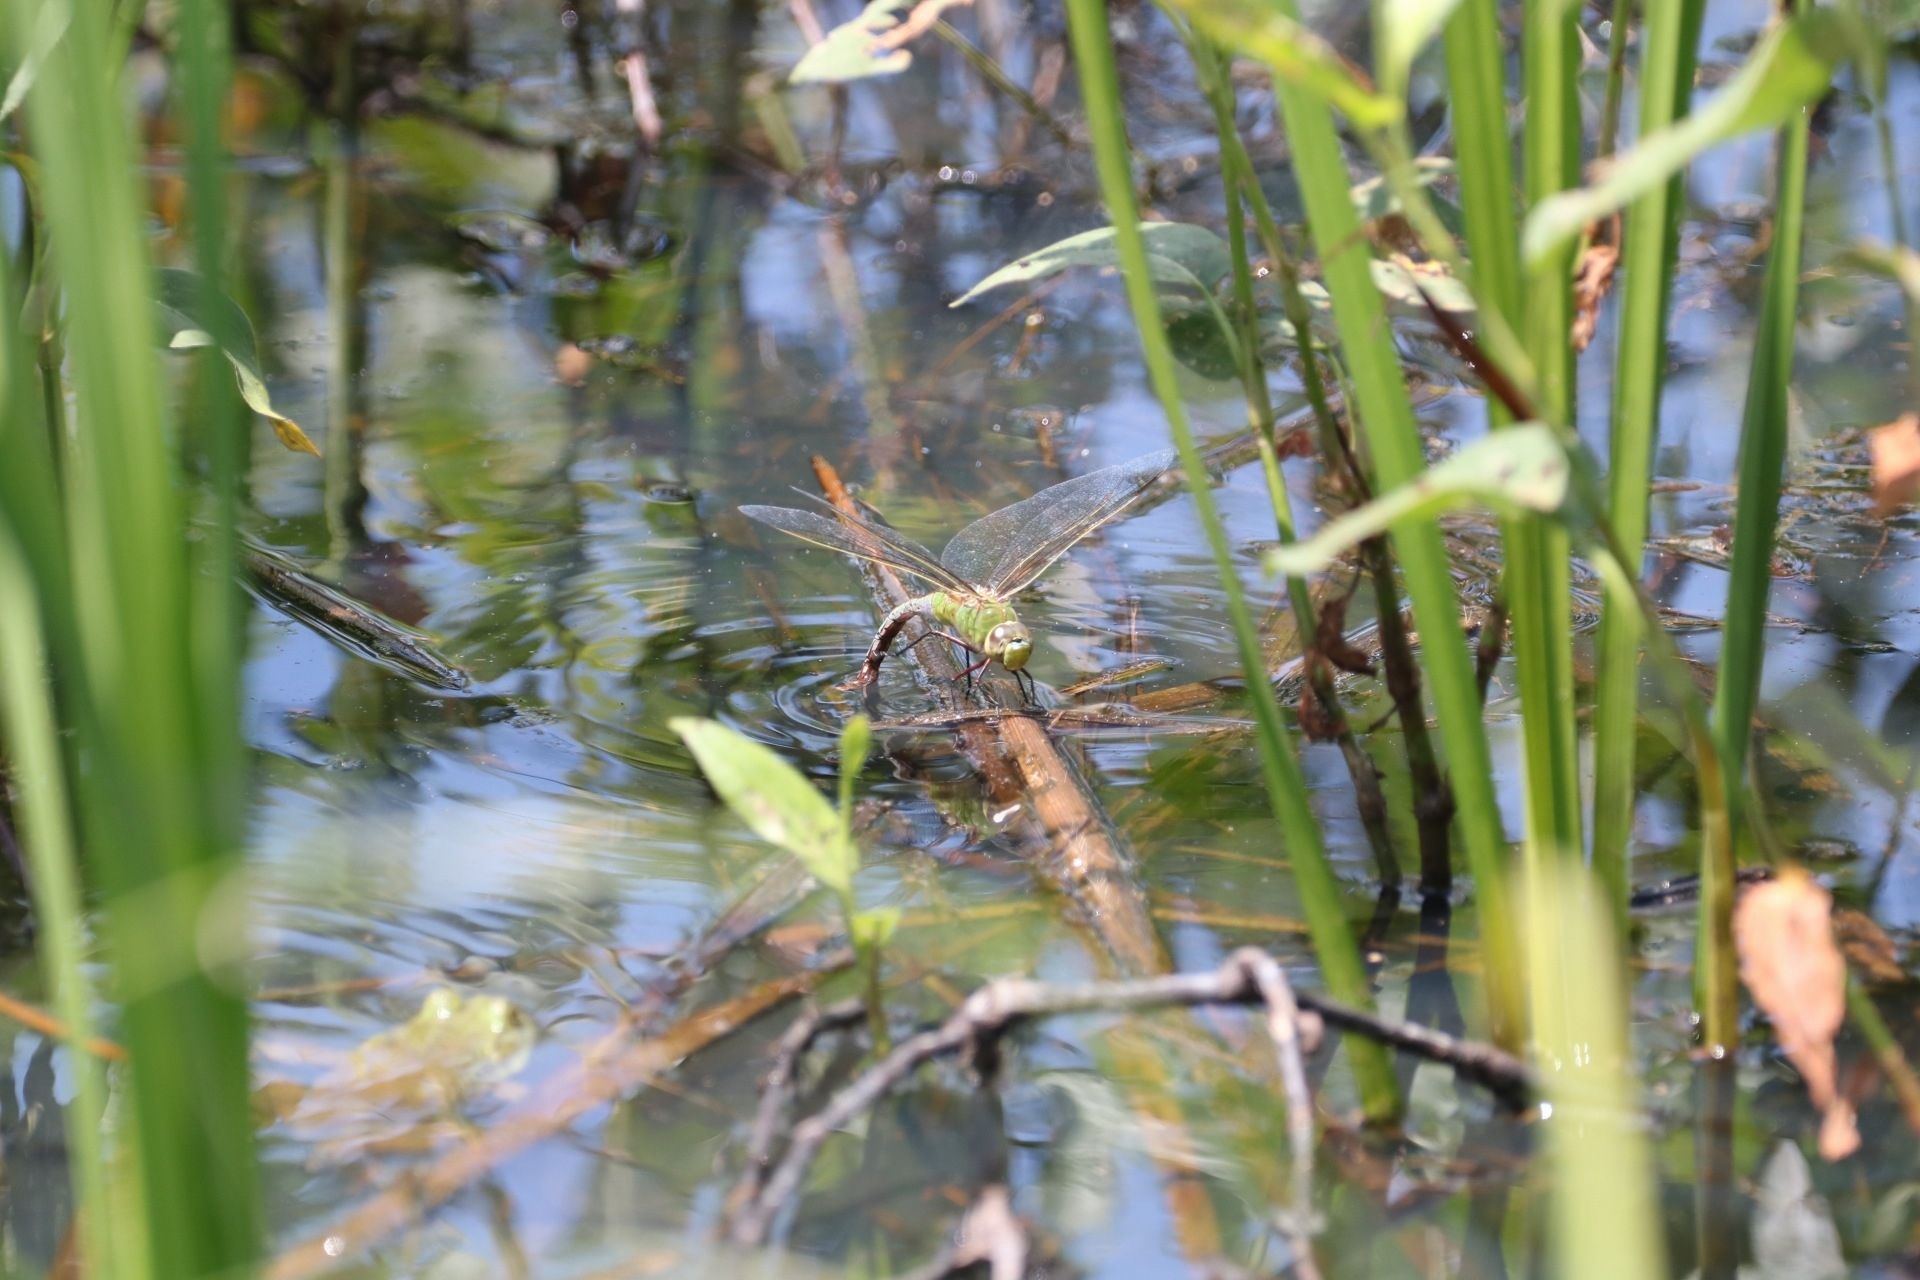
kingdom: Animalia
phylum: Arthropoda
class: Insecta
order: Odonata
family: Aeshnidae
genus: Anax
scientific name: Anax junius
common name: Common green darner
